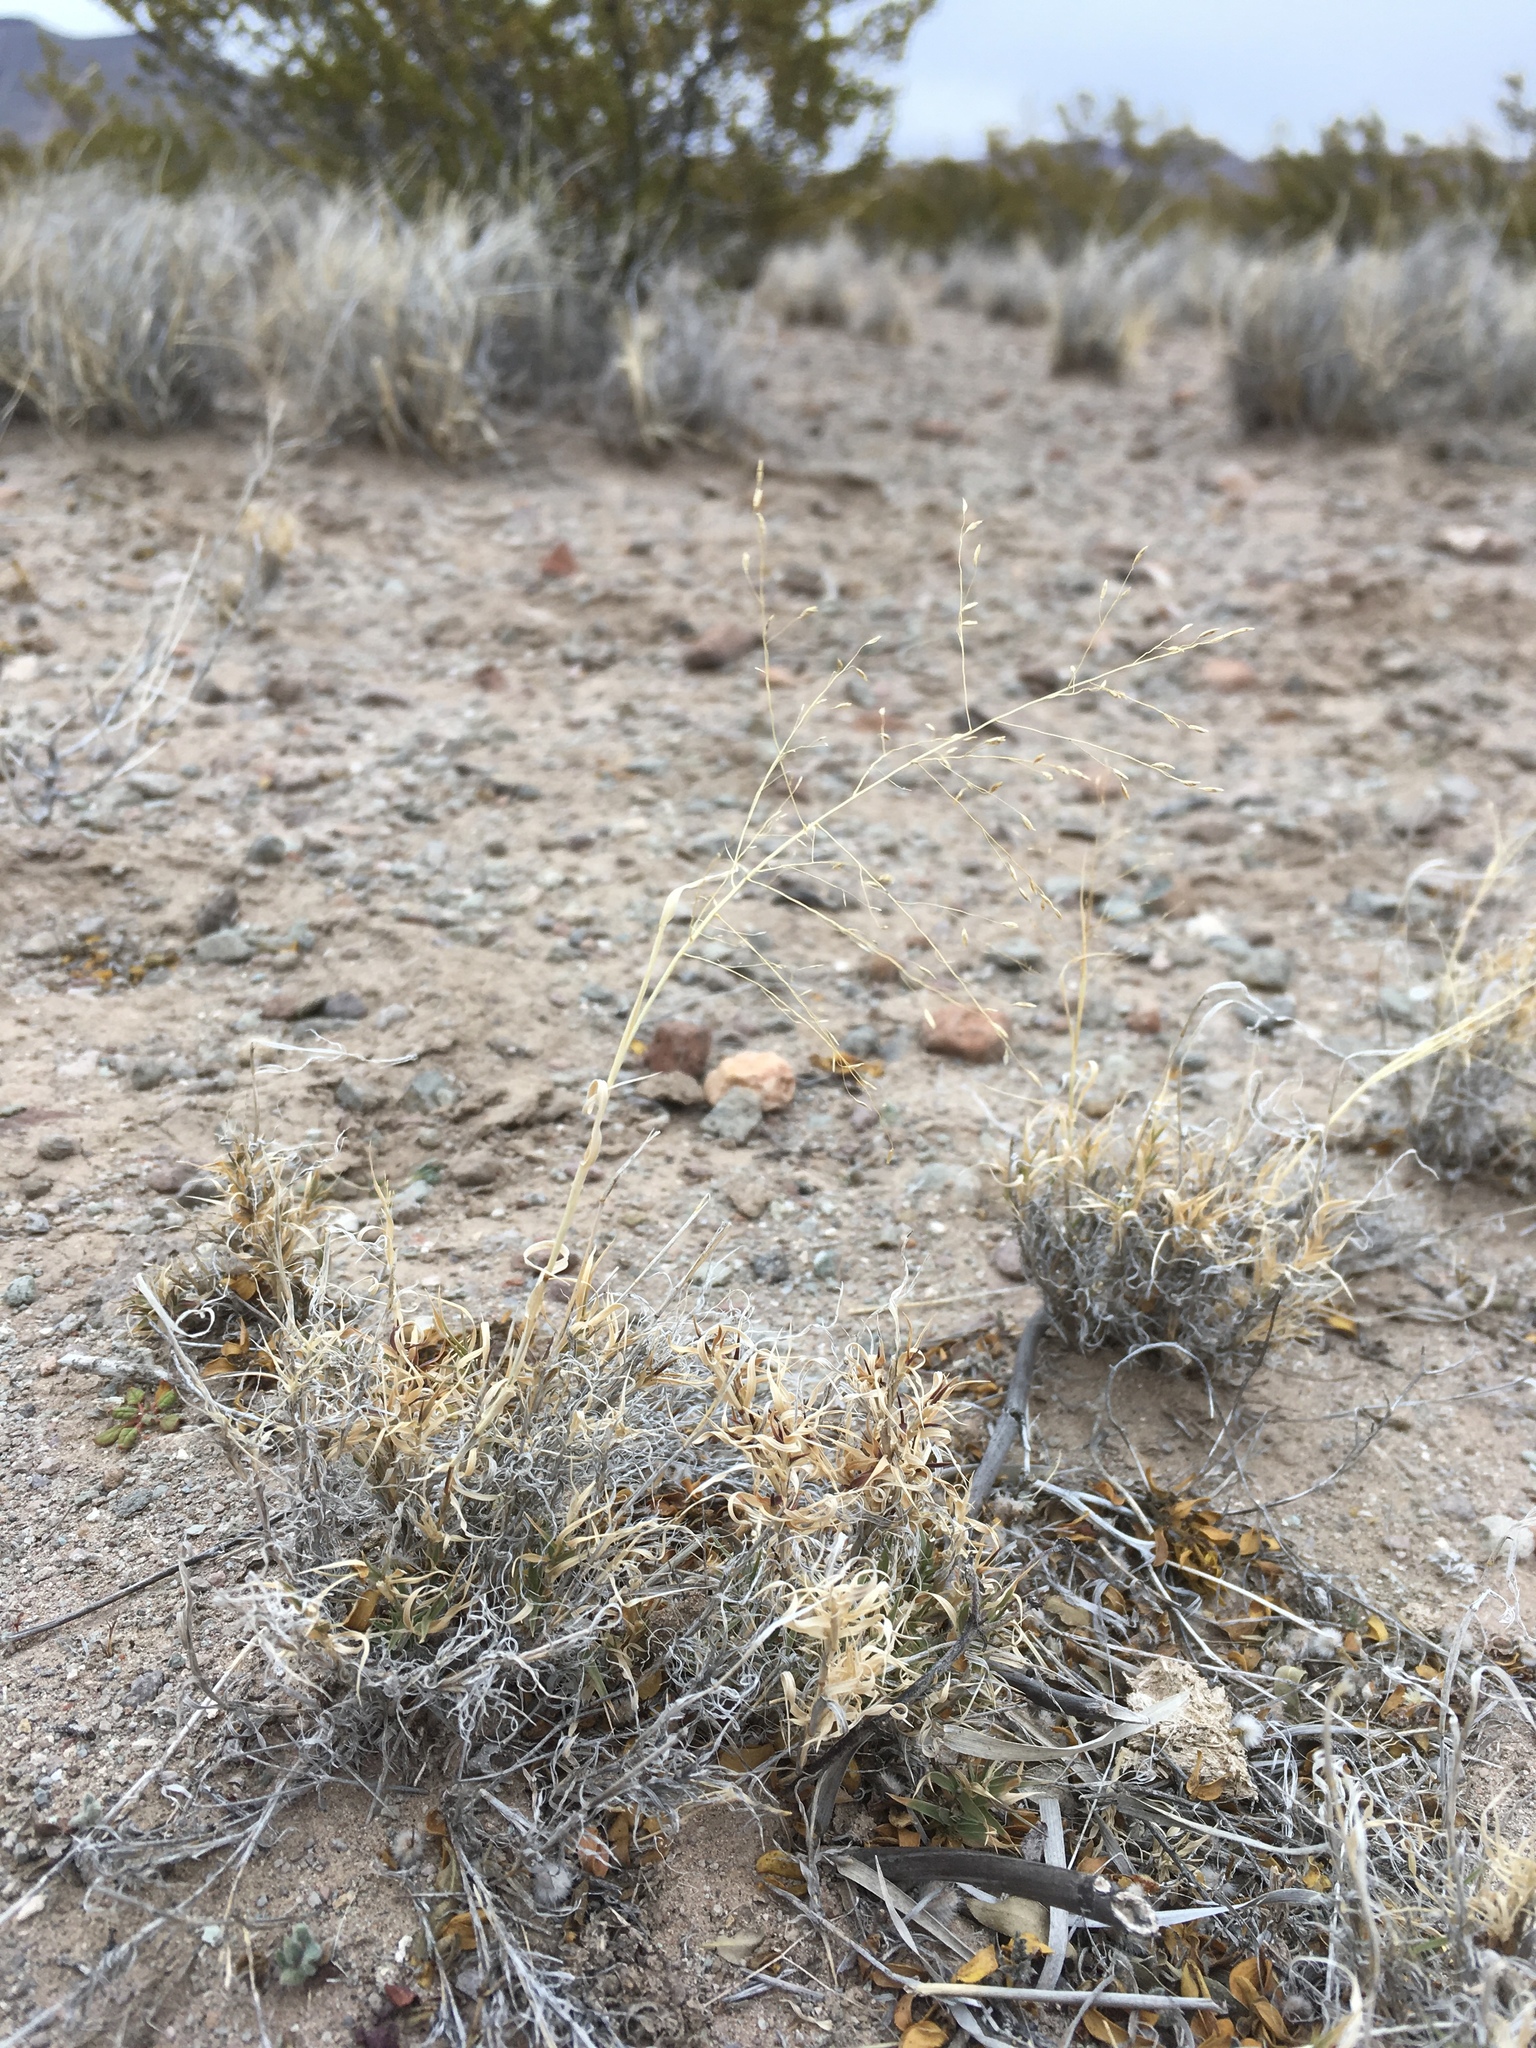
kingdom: Plantae
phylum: Tracheophyta
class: Liliopsida
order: Poales
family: Poaceae
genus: Muhlenbergia
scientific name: Muhlenbergia arenacea
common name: Ear muhly
